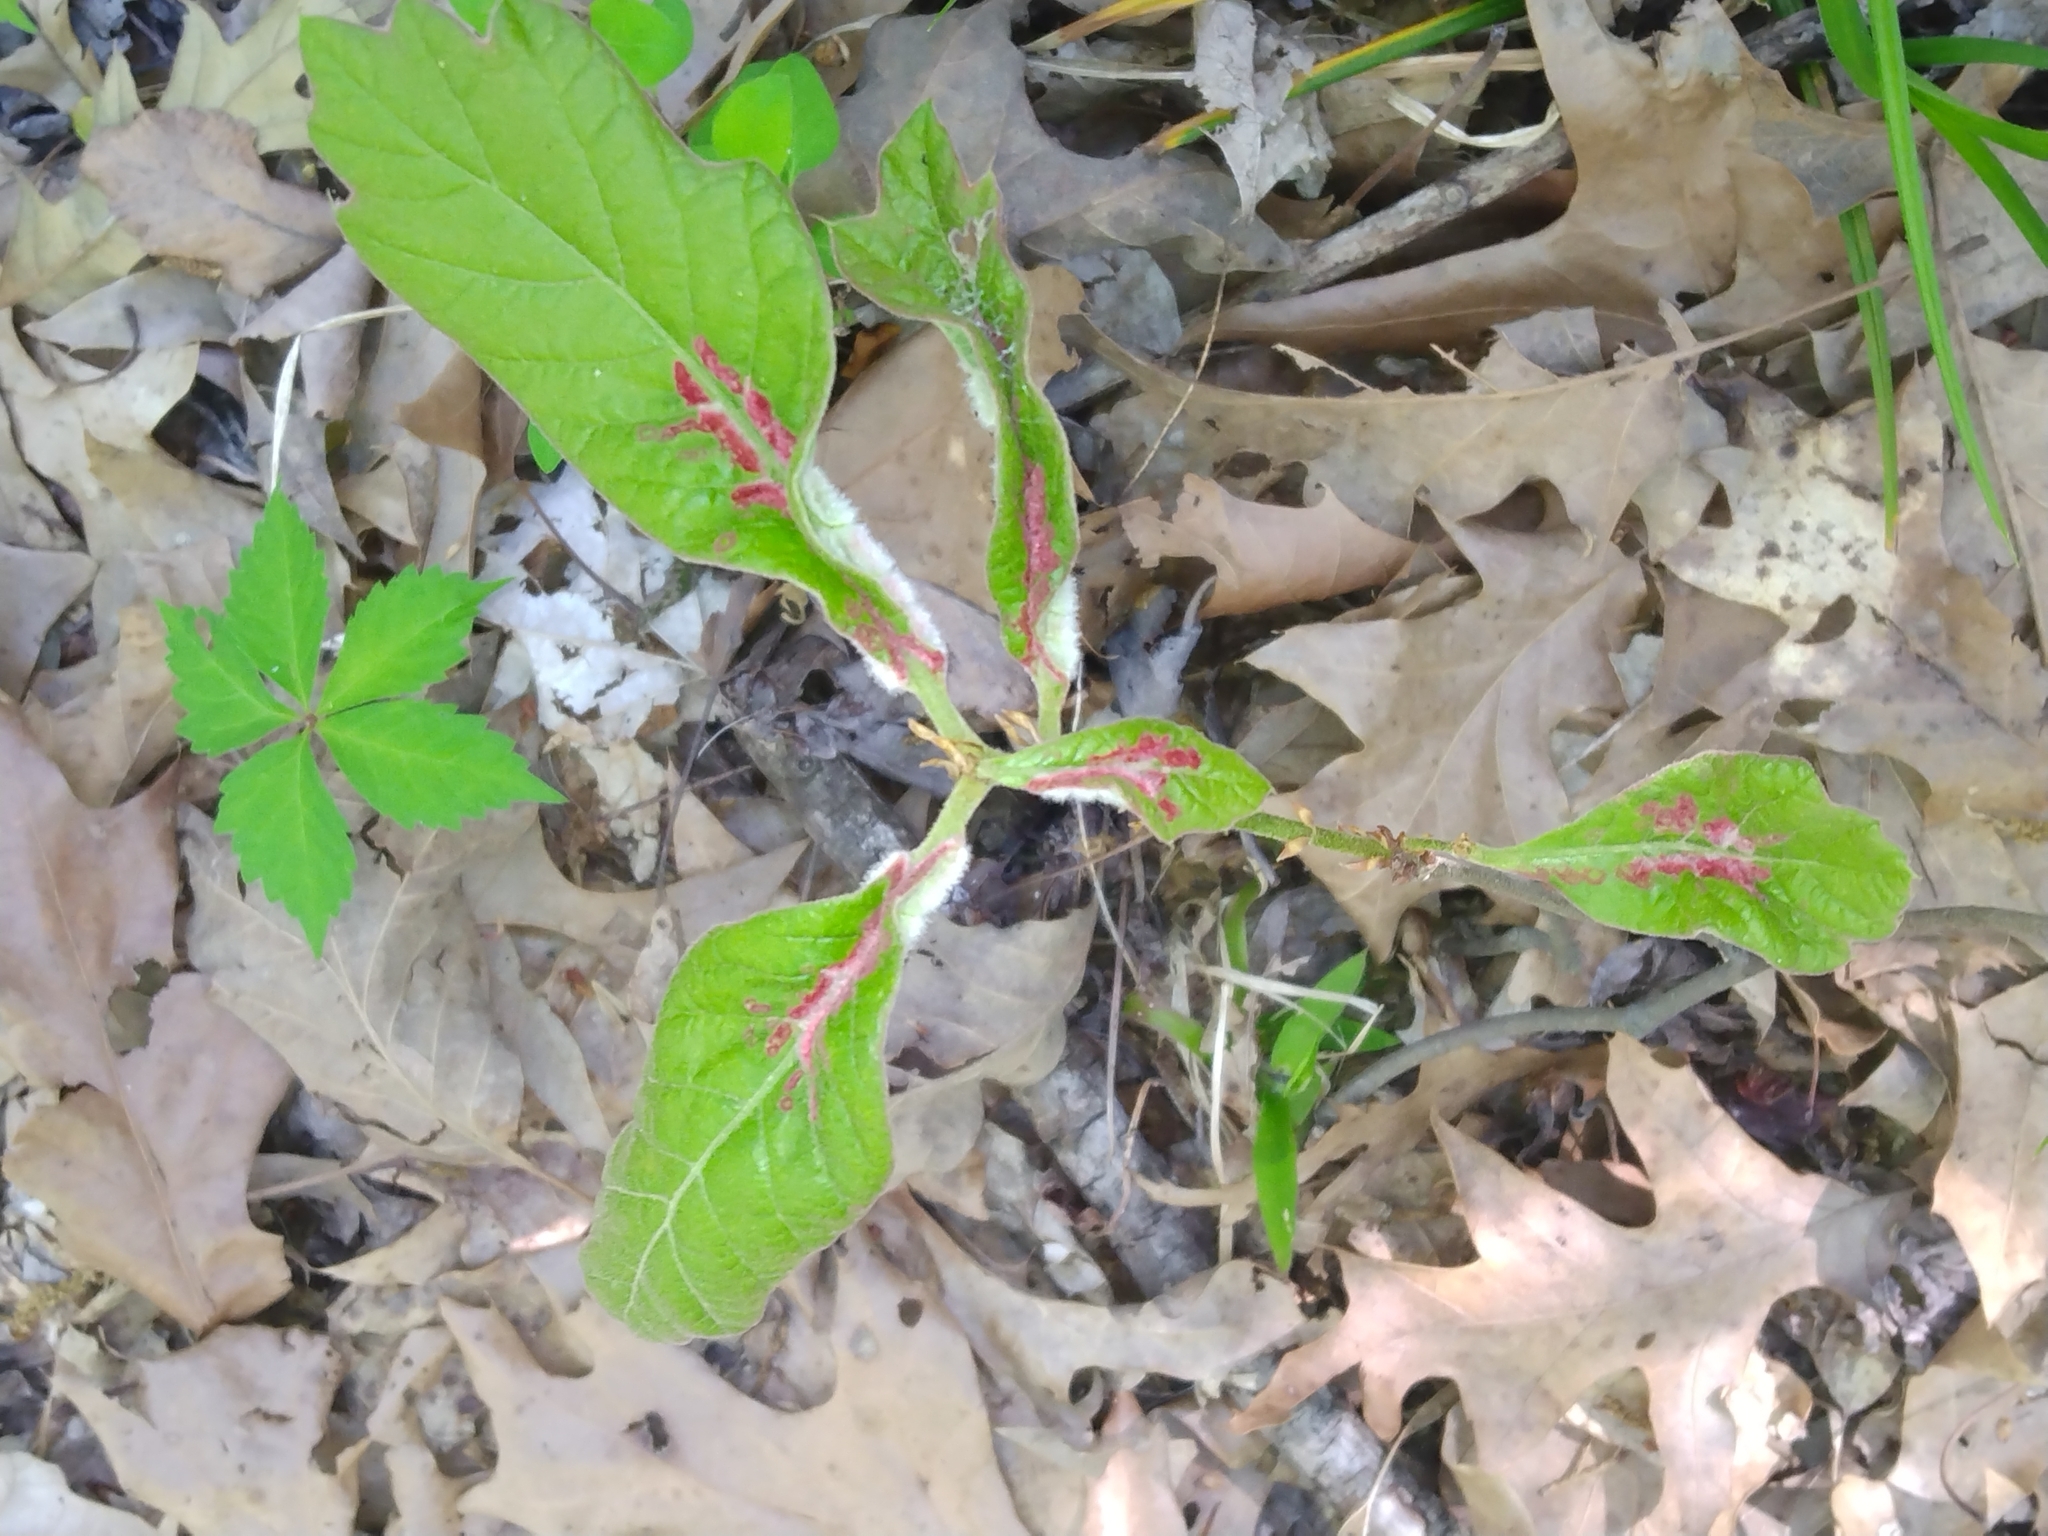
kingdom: Animalia
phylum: Arthropoda
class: Insecta
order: Diptera
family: Cecidomyiidae
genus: Macrodiplosis
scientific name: Macrodiplosis niveipila
